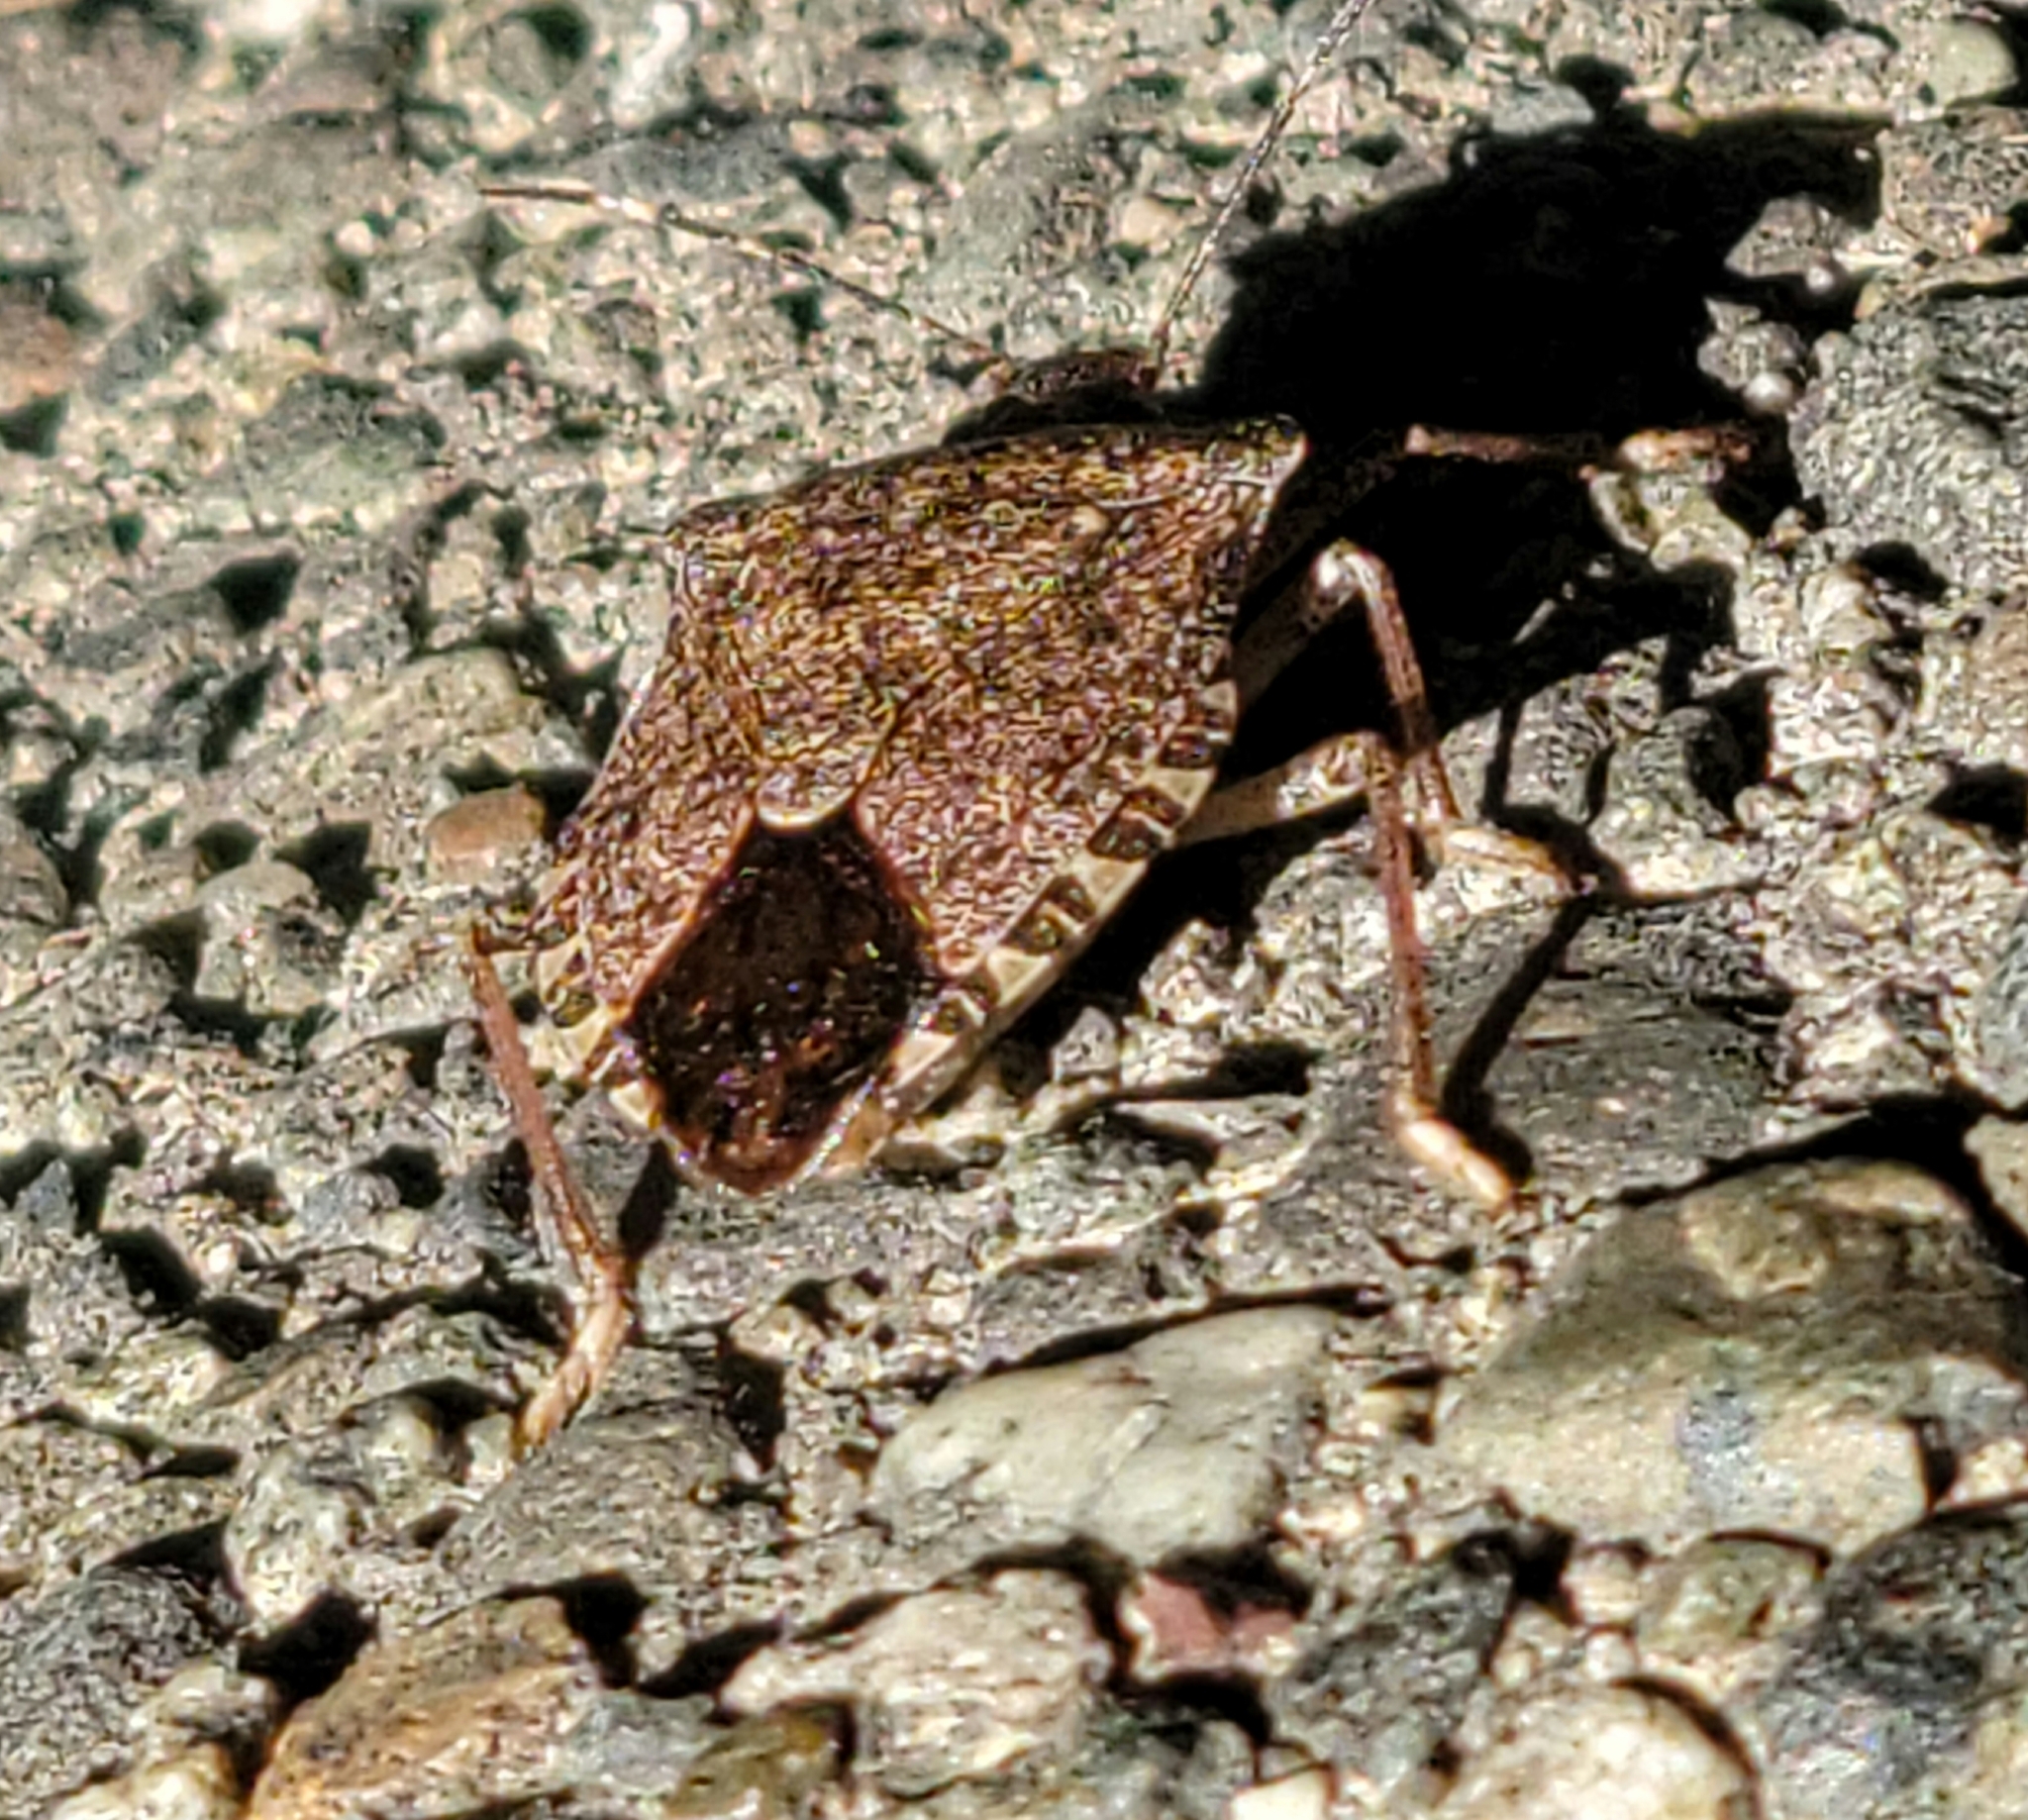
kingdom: Animalia
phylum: Arthropoda
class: Insecta
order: Hemiptera
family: Pentatomidae
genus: Halyomorpha
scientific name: Halyomorpha halys
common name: Brown marmorated stink bug
